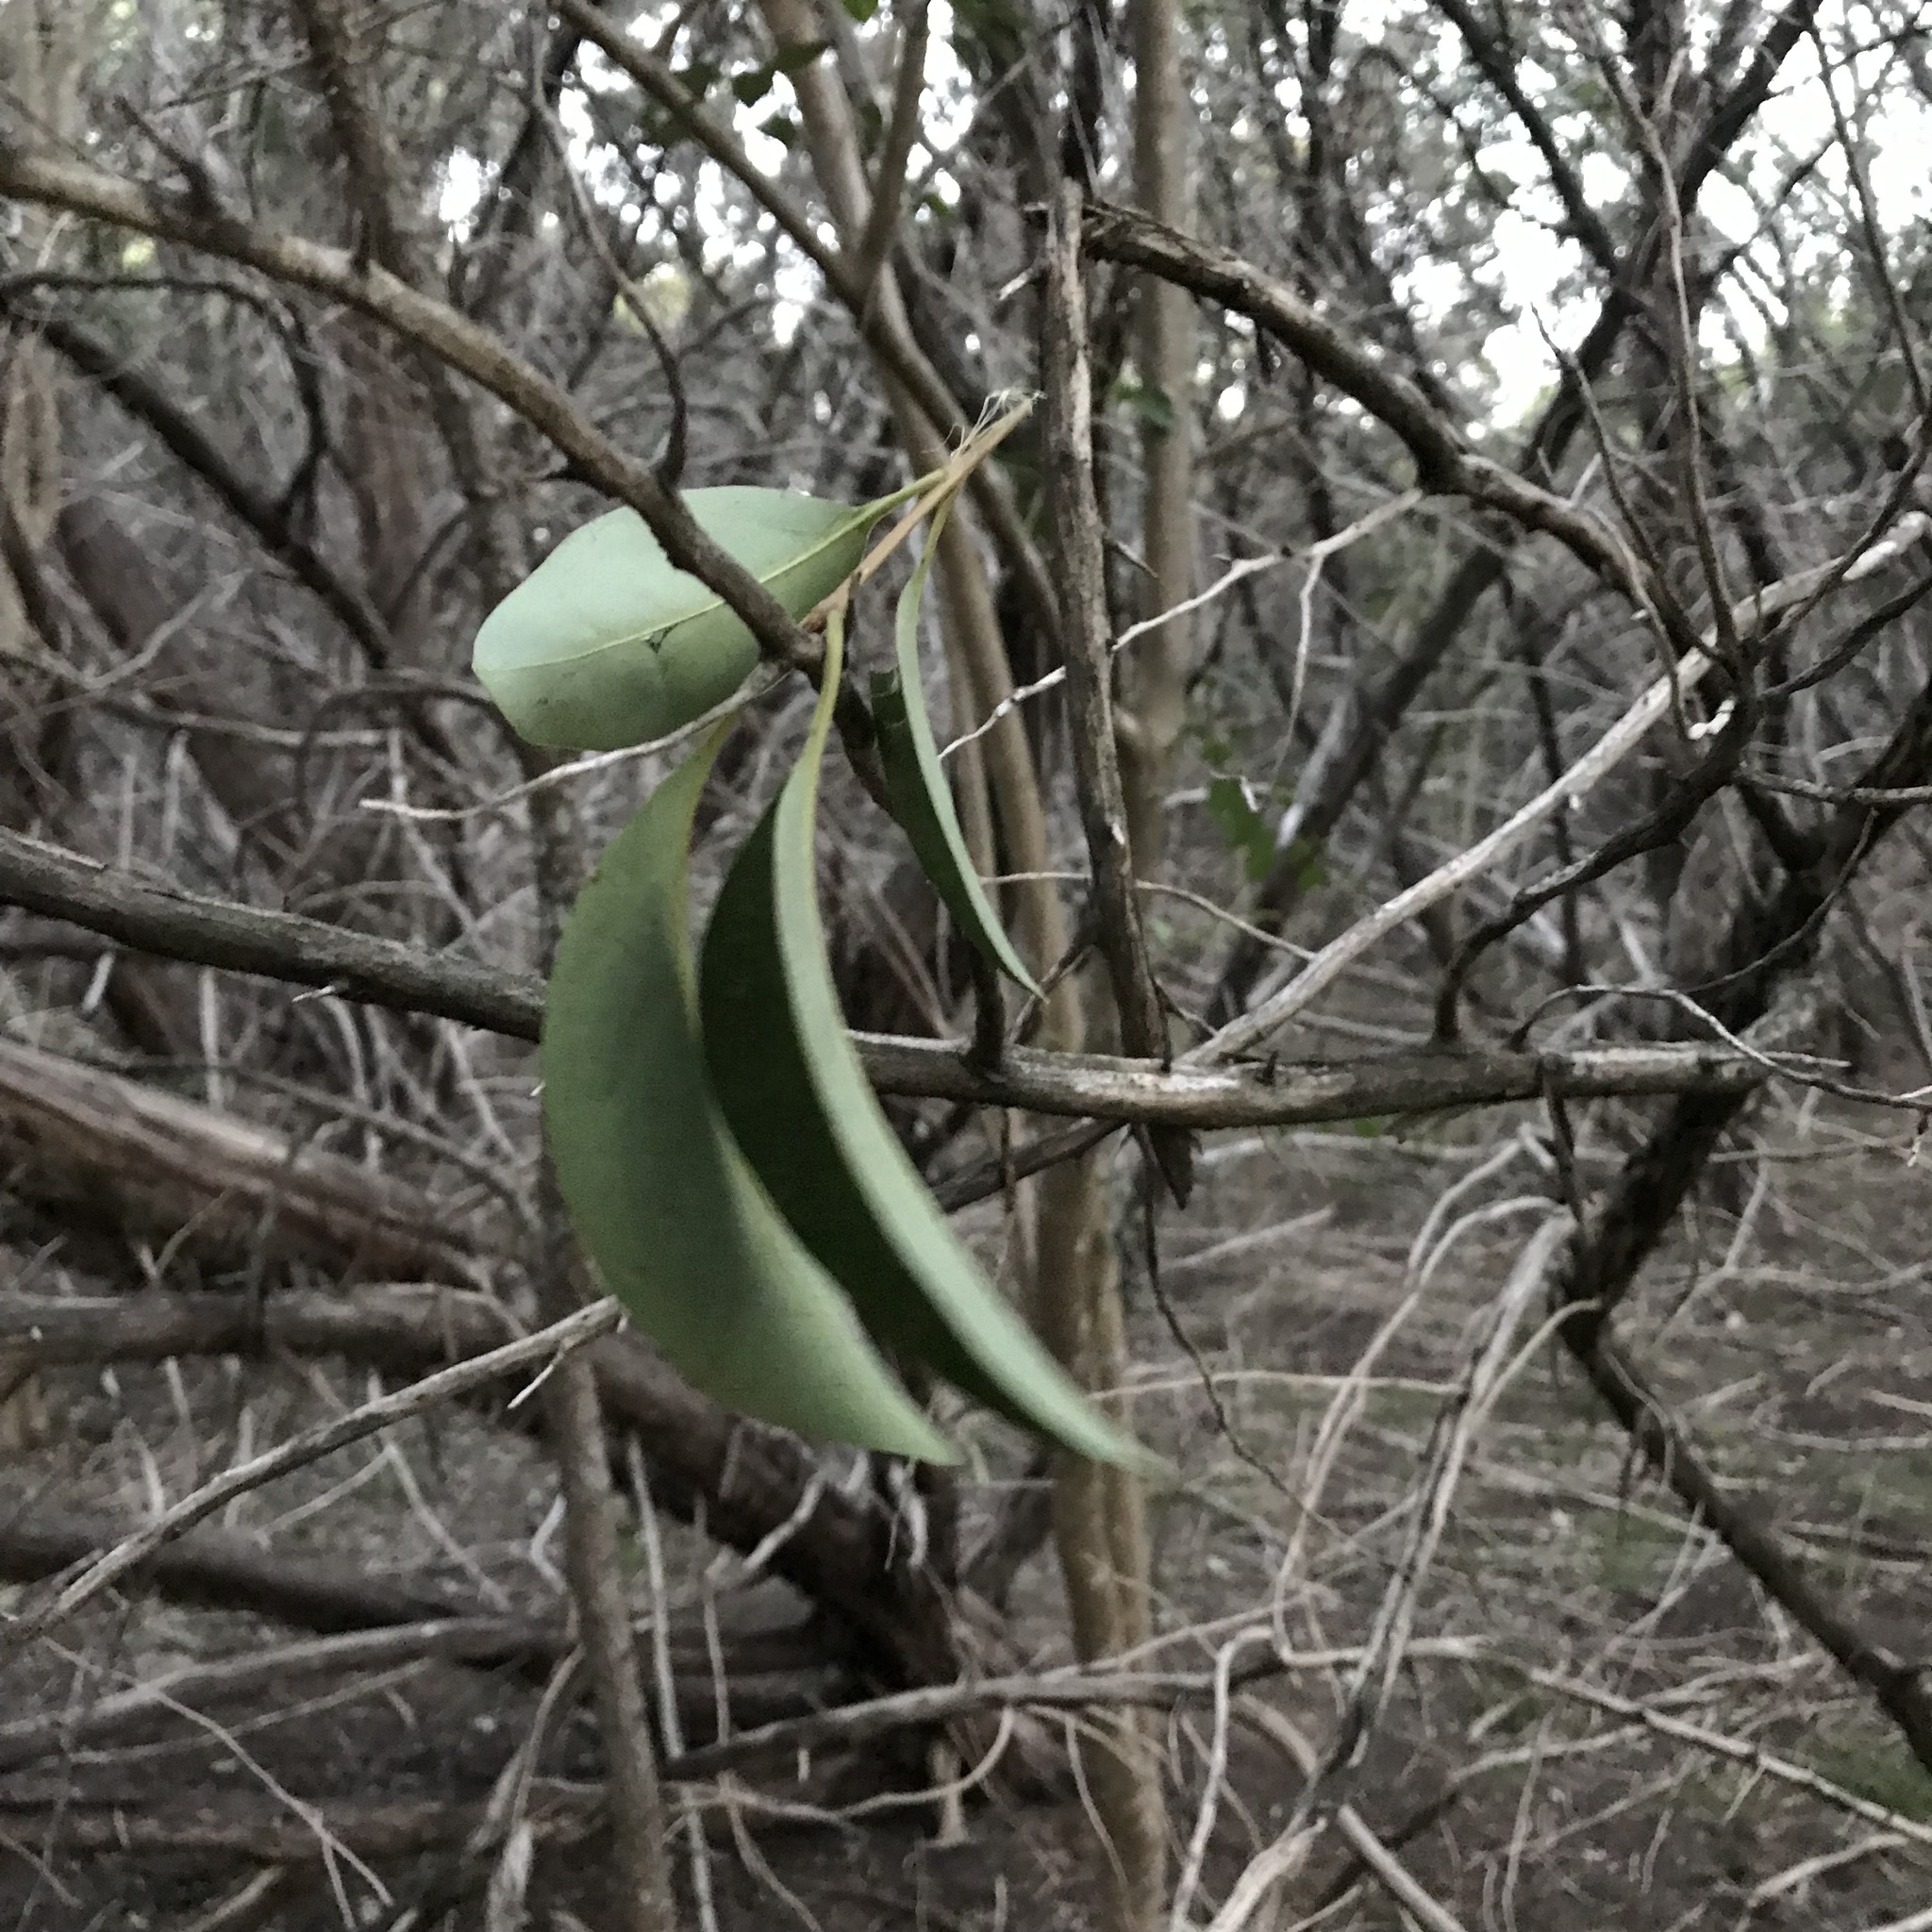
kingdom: Plantae
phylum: Tracheophyta
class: Magnoliopsida
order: Lamiales
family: Oleaceae
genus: Ligustrum
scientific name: Ligustrum lucidum
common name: Glossy privet
